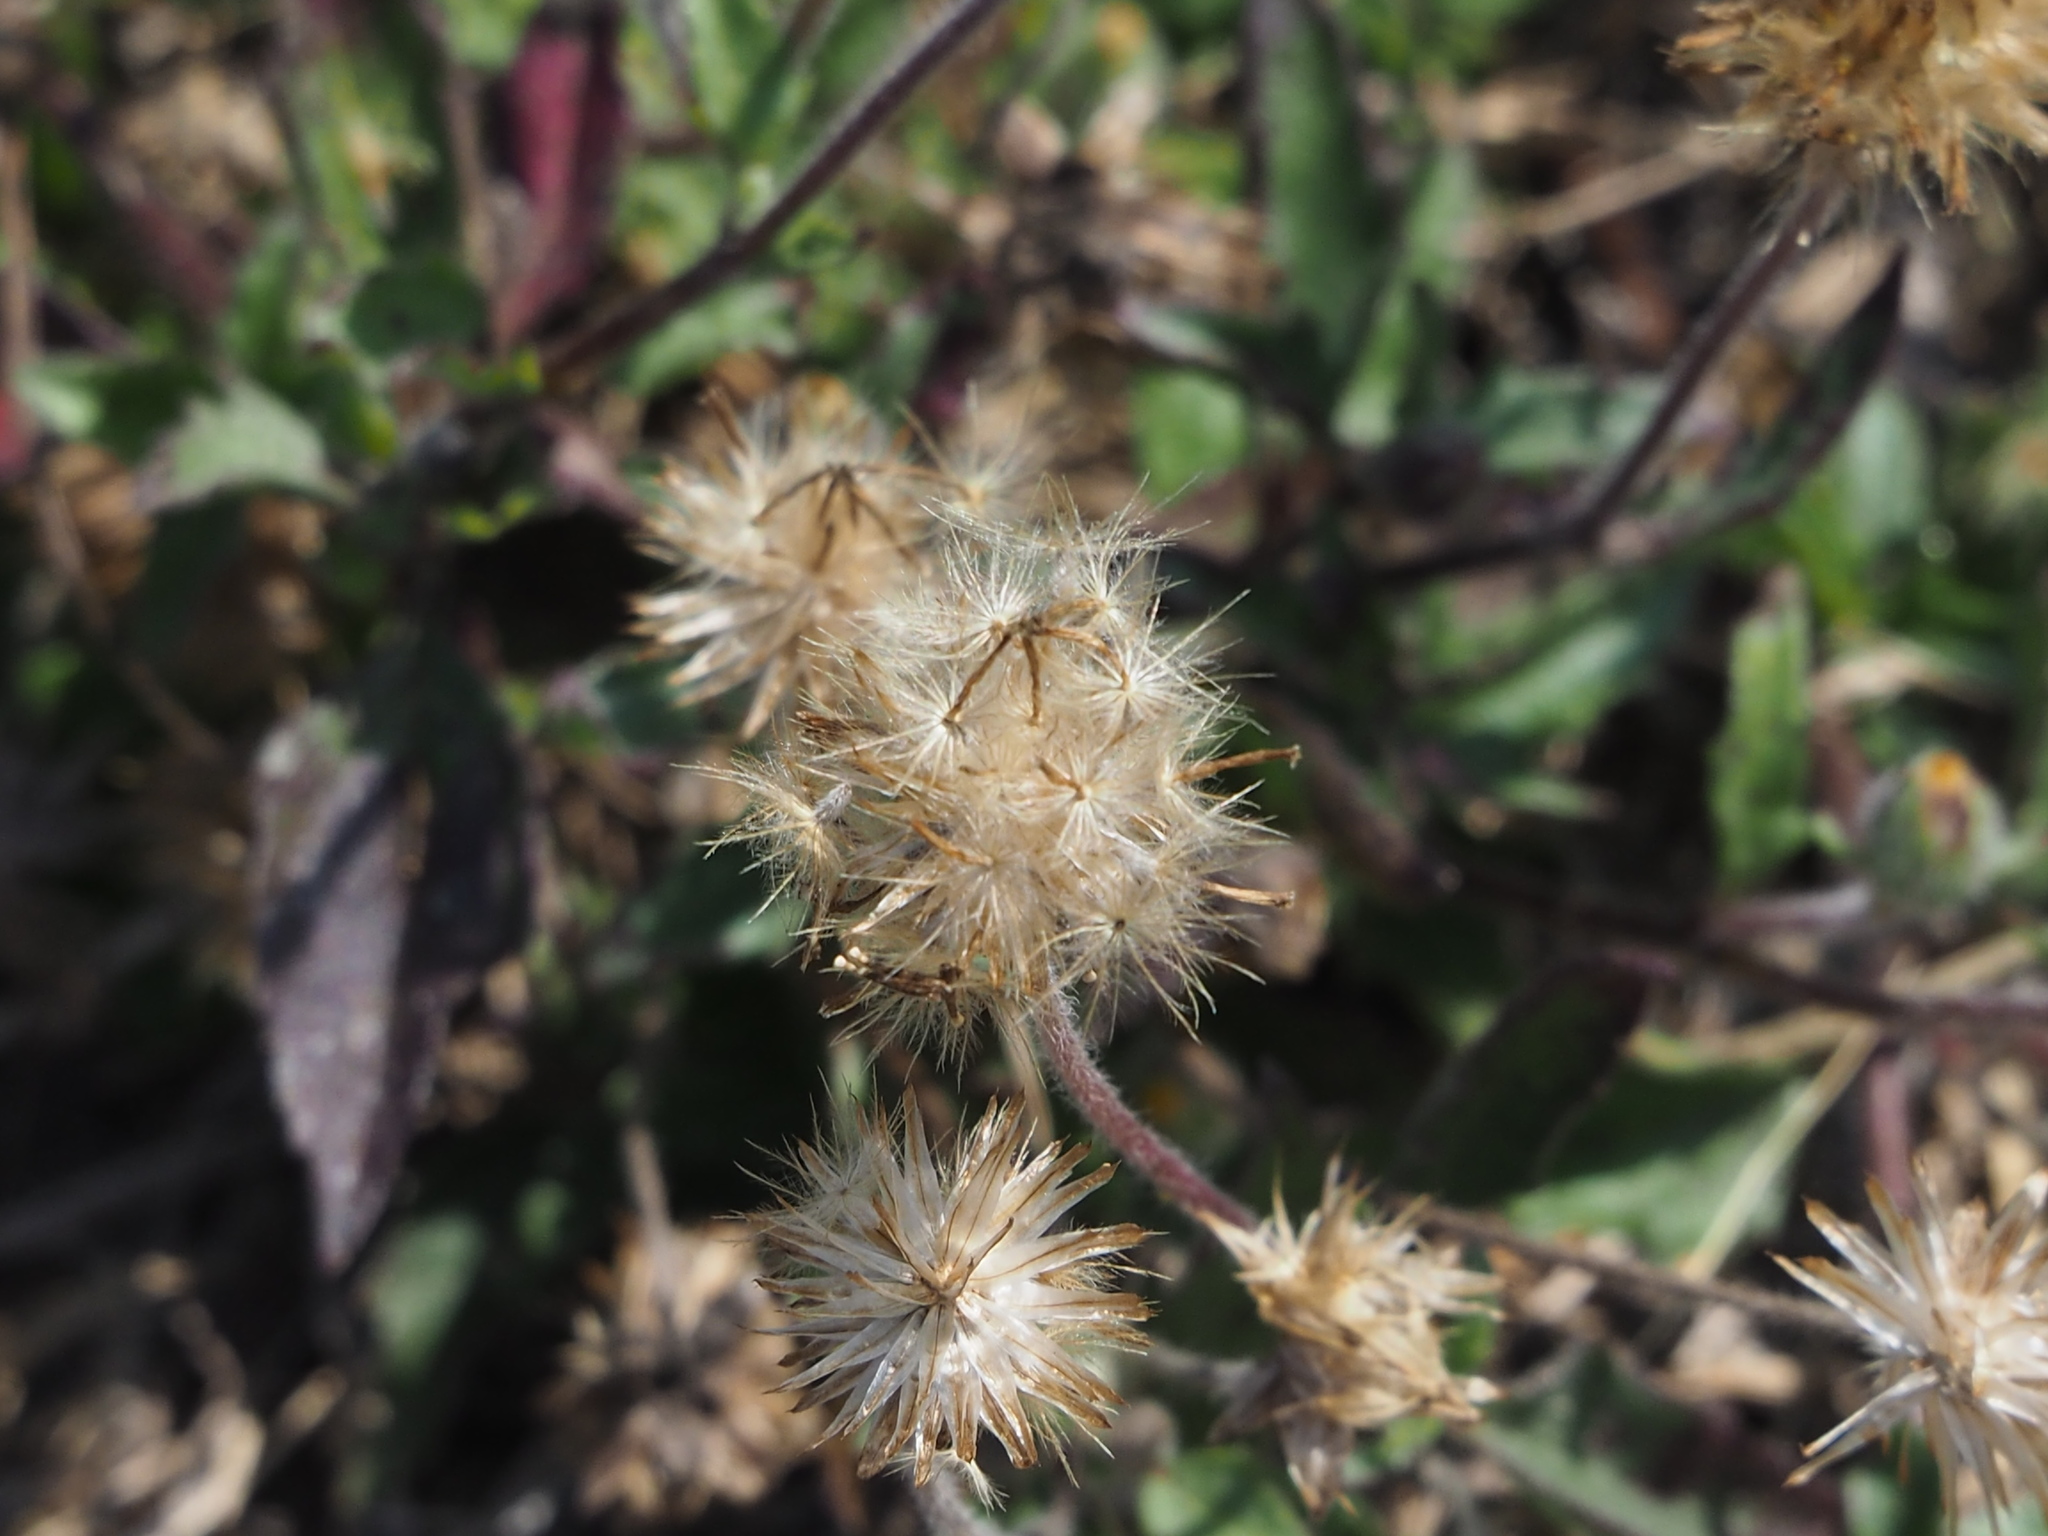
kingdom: Plantae
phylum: Tracheophyta
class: Magnoliopsida
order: Asterales
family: Asteraceae
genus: Tridax
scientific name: Tridax procumbens
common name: Coatbuttons
